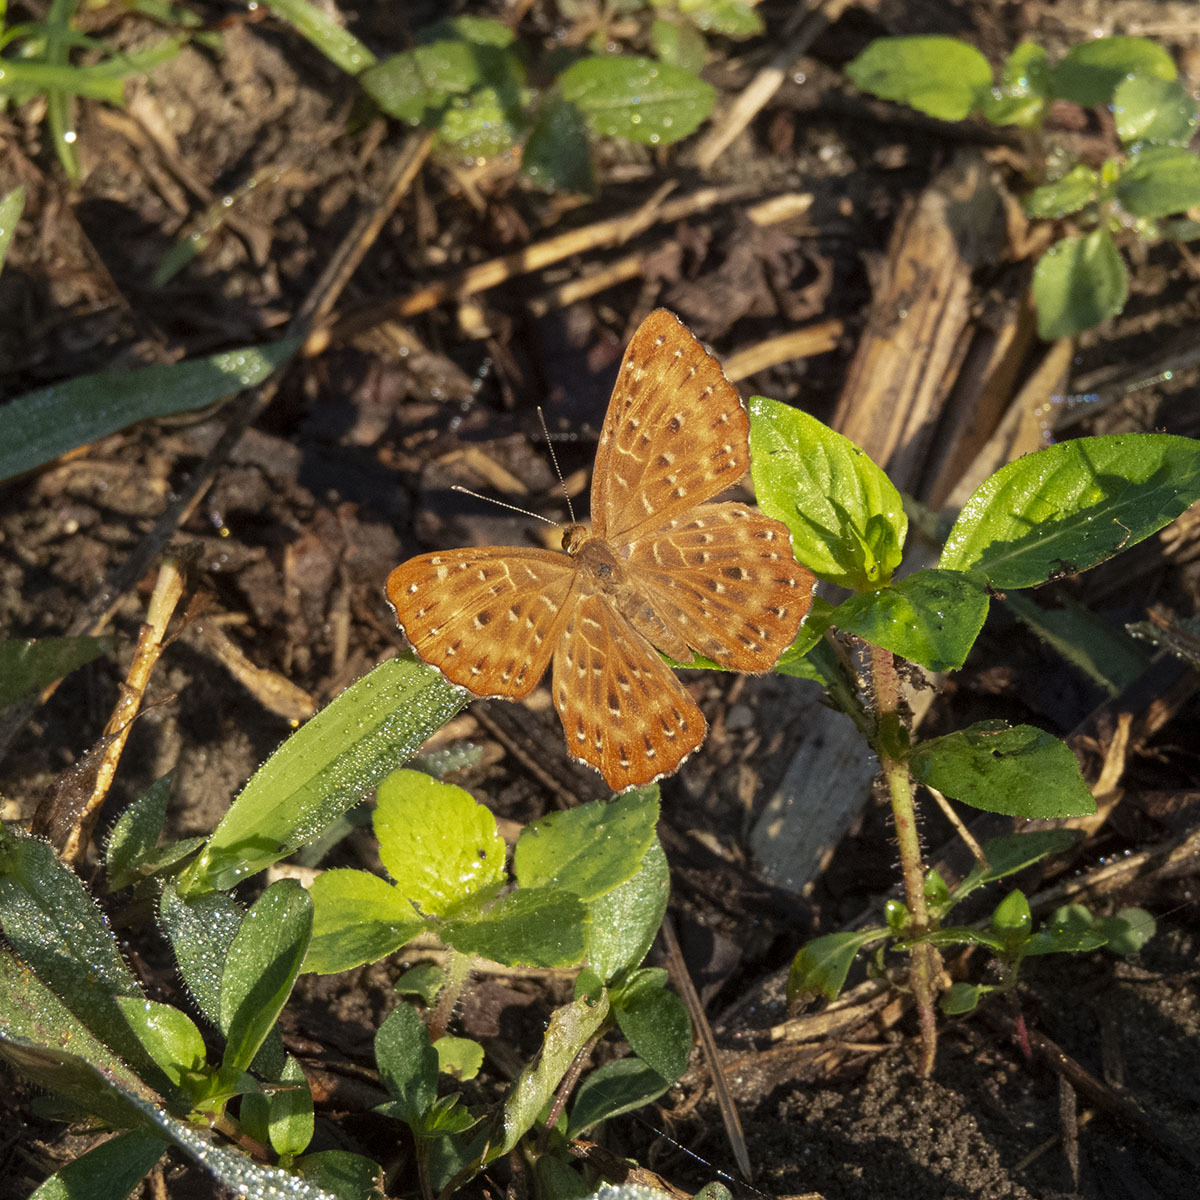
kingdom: Animalia
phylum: Arthropoda
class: Insecta
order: Lepidoptera
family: Riodinidae
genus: Zemeros
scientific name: Zemeros flegyas
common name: Punchinello
